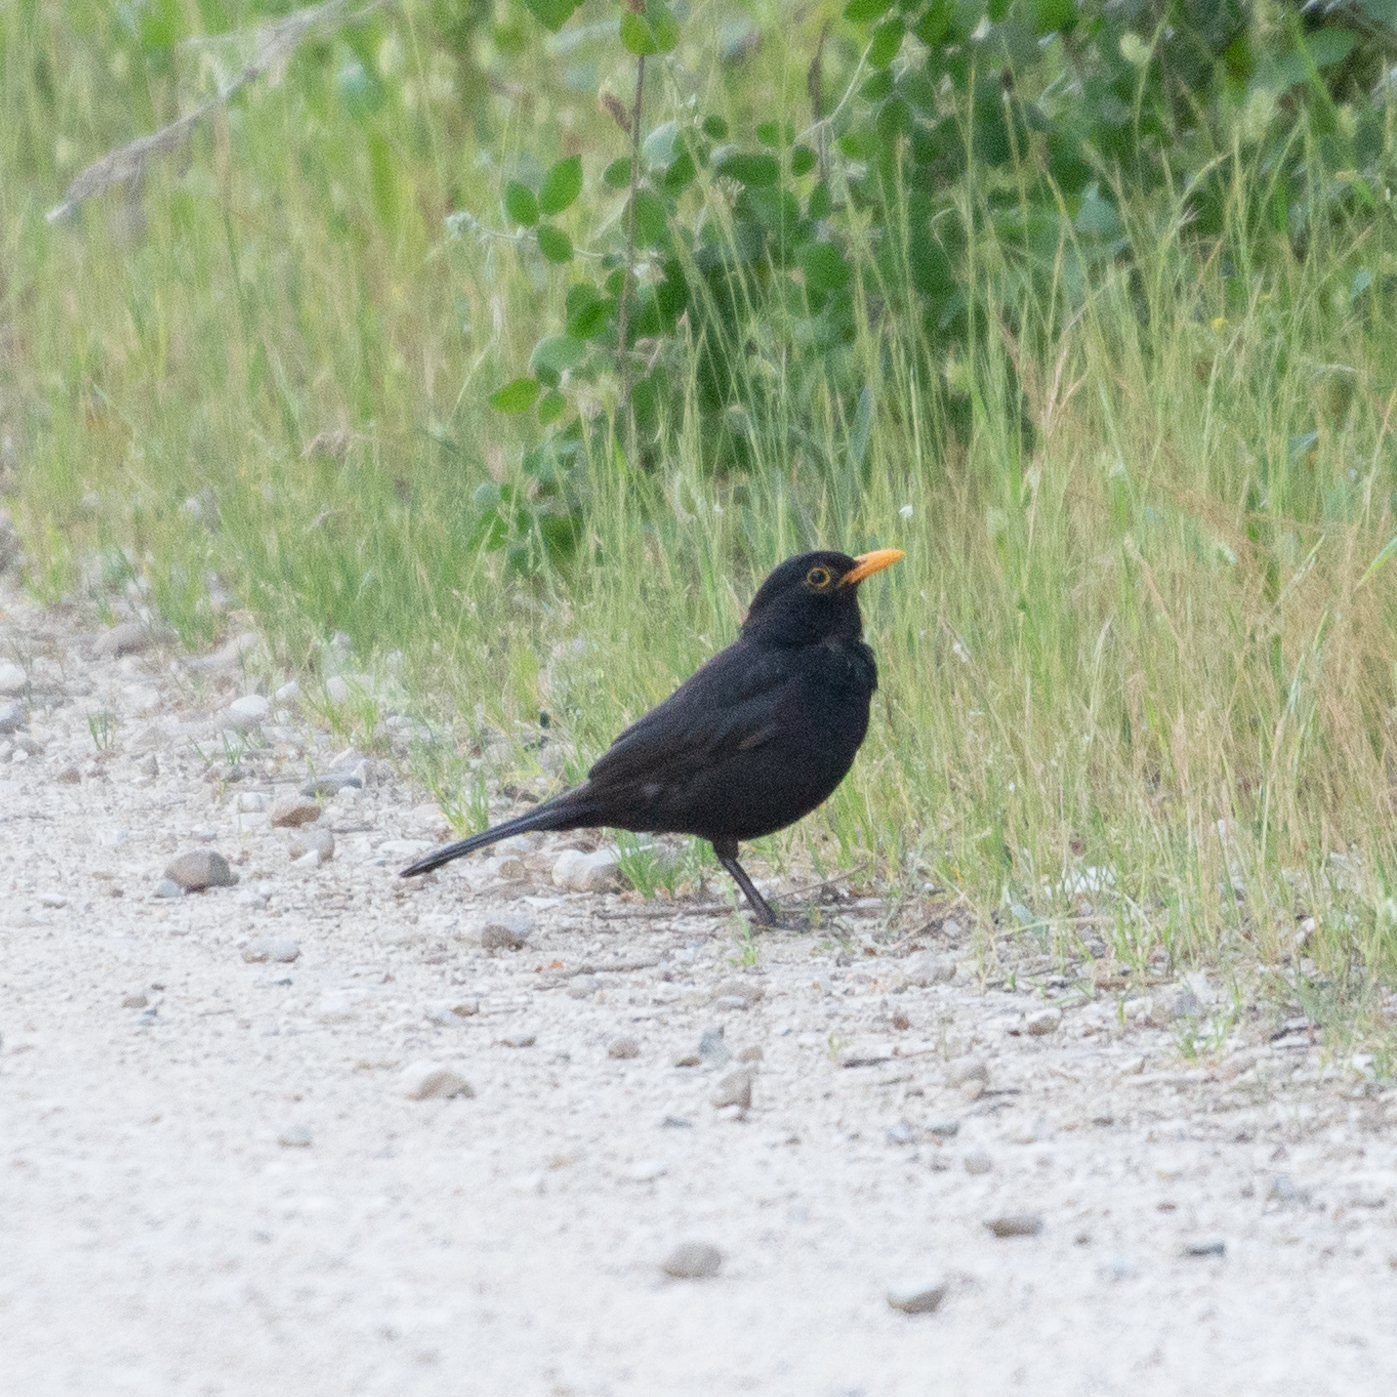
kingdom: Animalia
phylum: Chordata
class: Aves
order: Passeriformes
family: Turdidae
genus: Turdus
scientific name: Turdus merula
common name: Common blackbird
